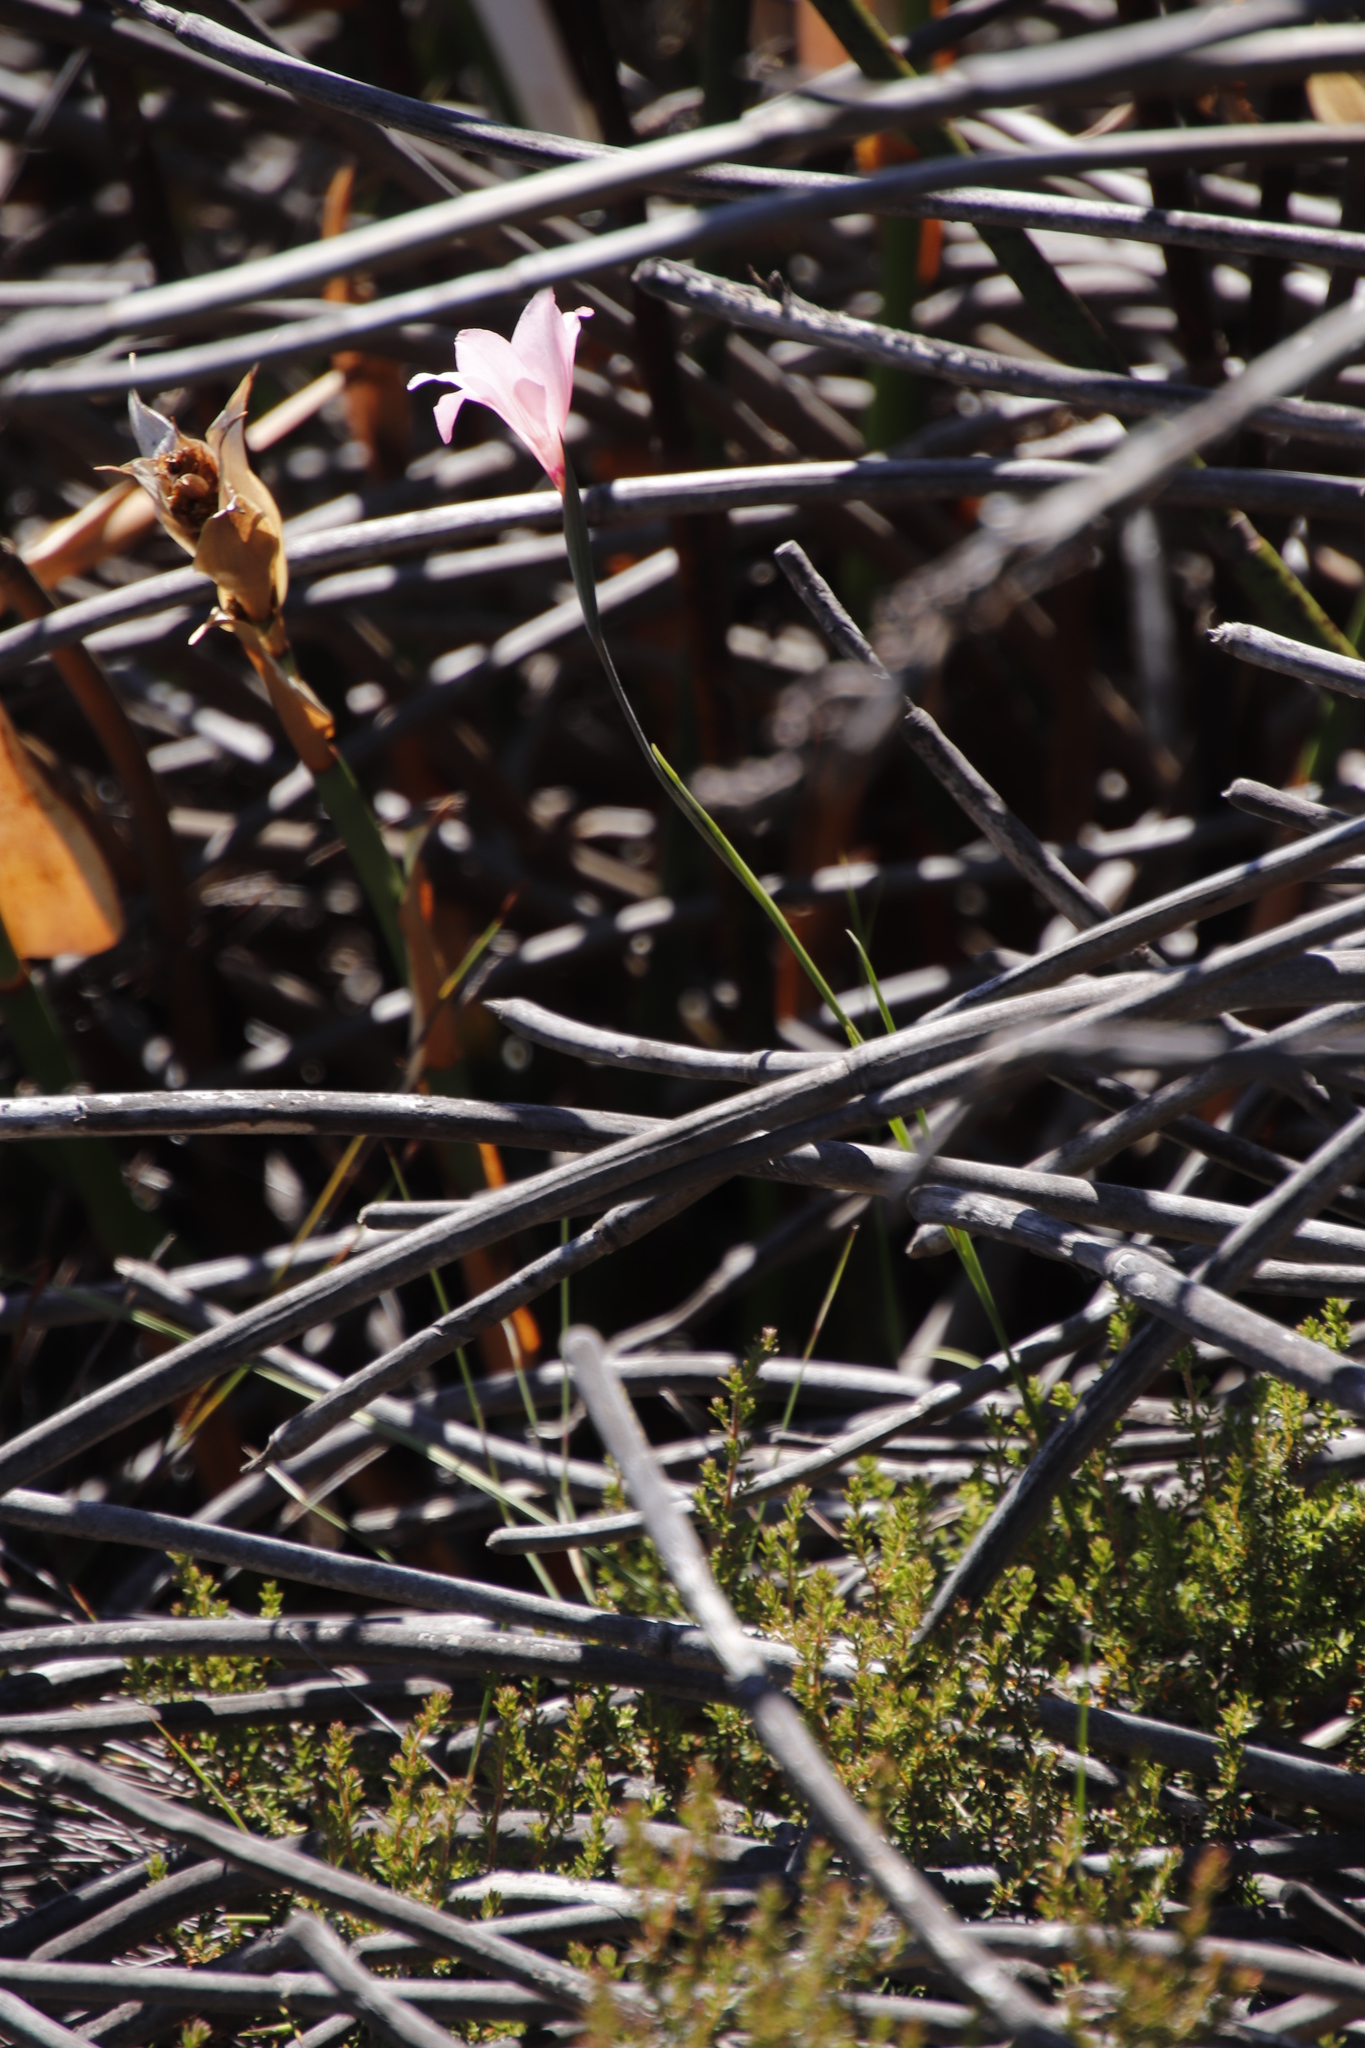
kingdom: Plantae
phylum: Tracheophyta
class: Liliopsida
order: Asparagales
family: Iridaceae
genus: Gladiolus
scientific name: Gladiolus pappei
